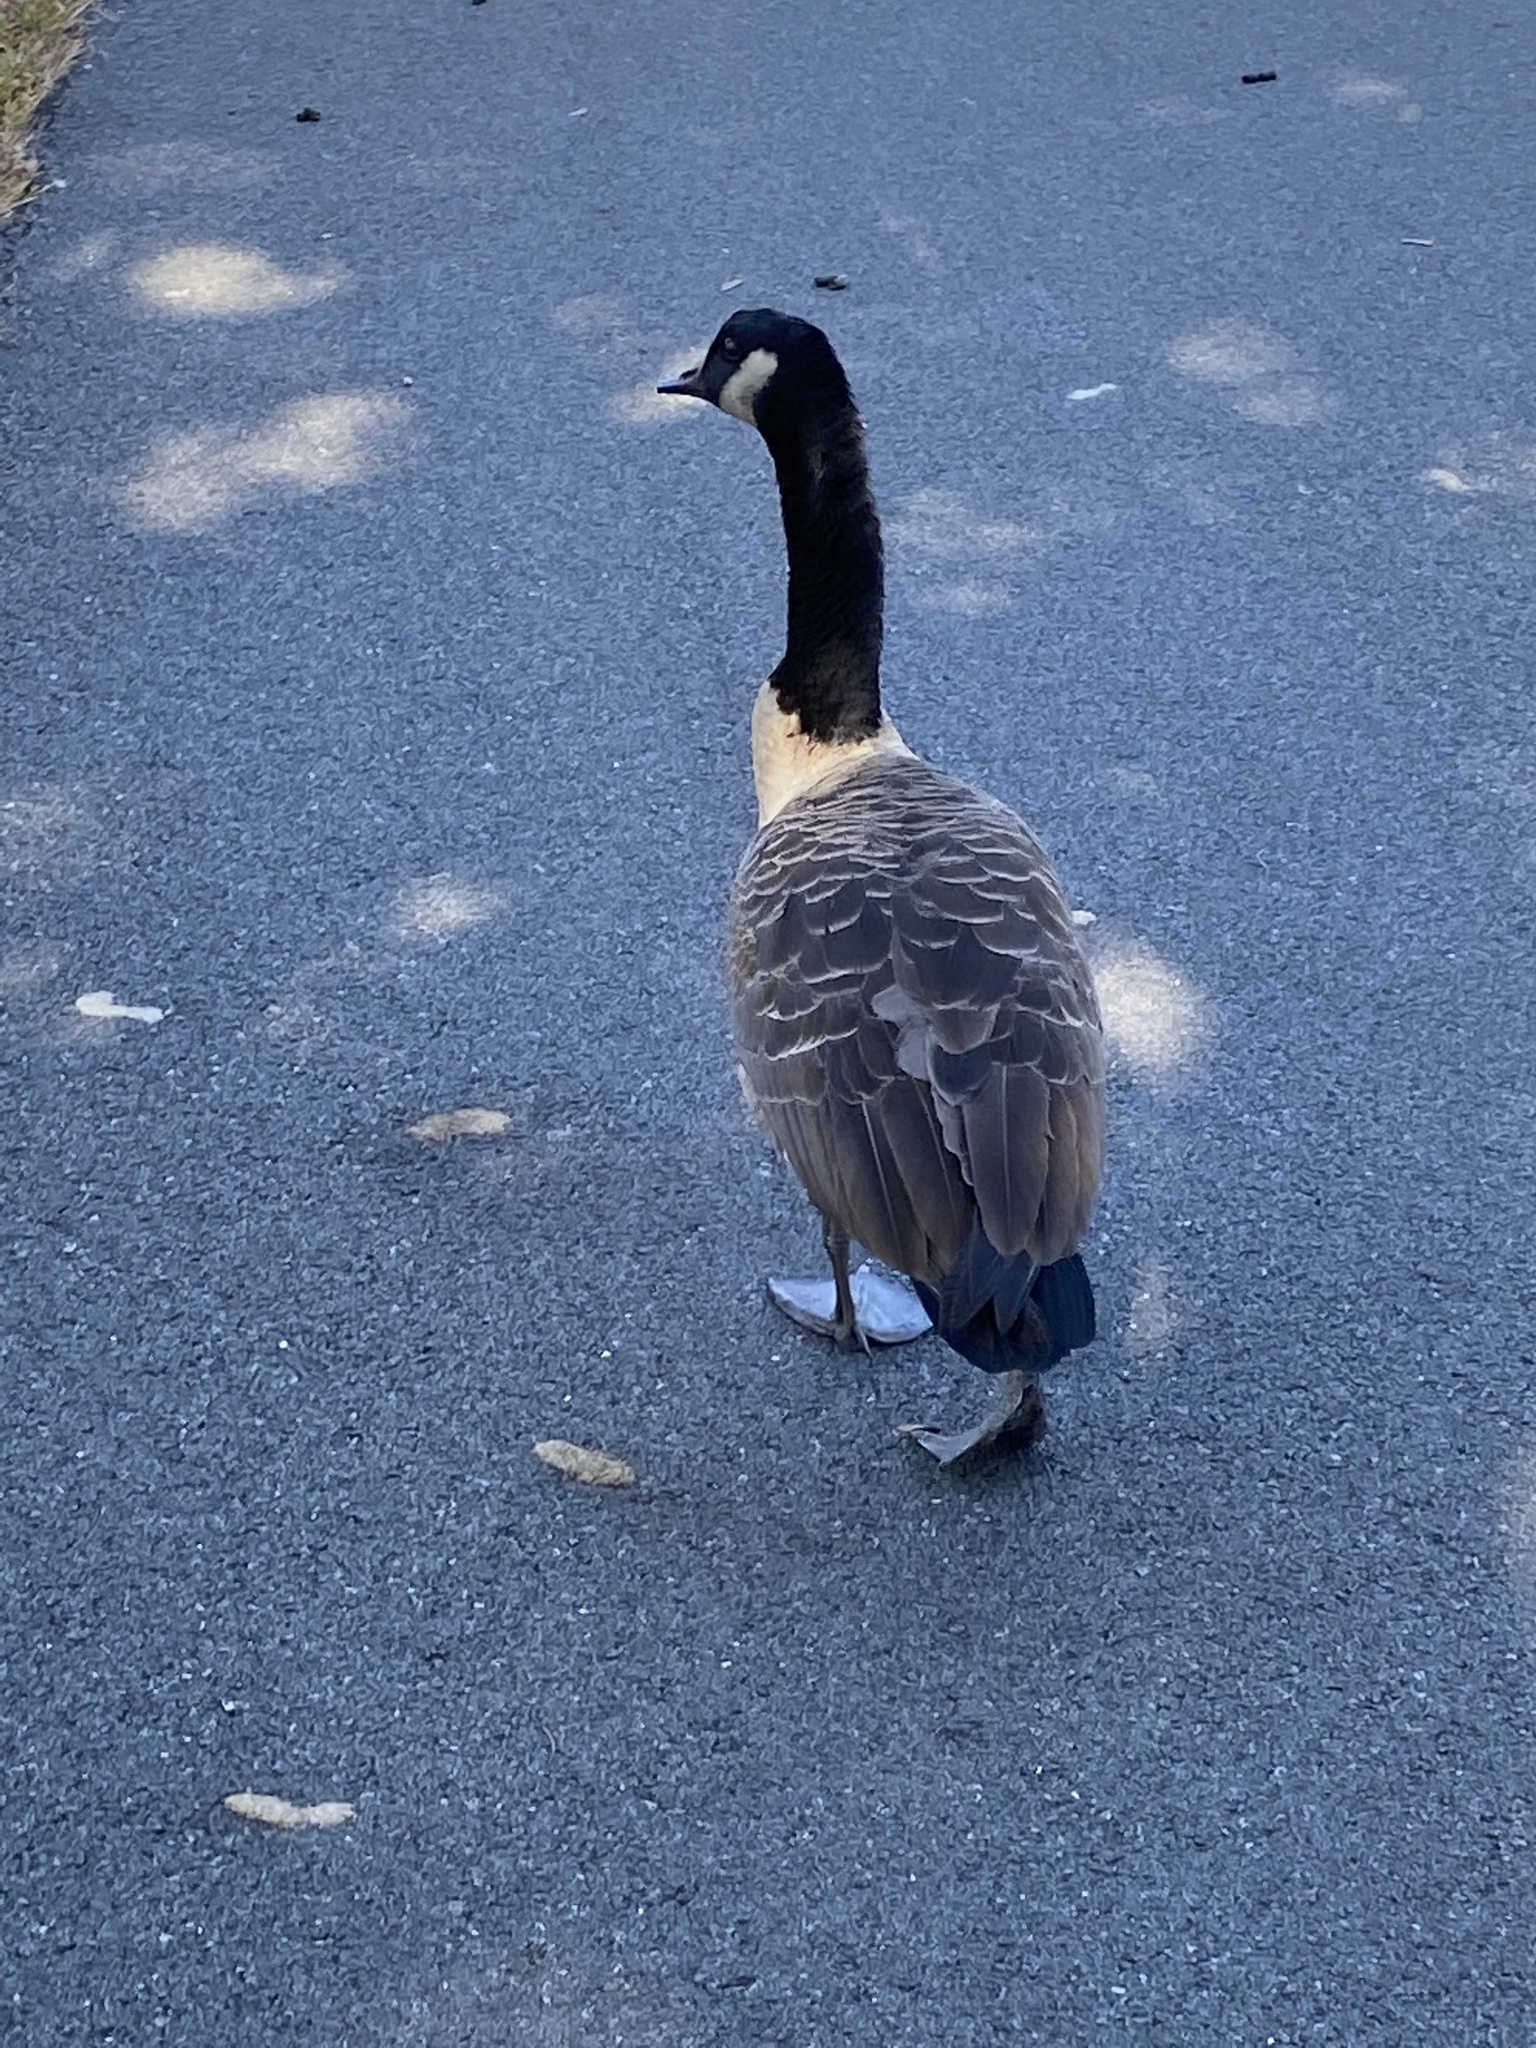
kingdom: Animalia
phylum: Chordata
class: Aves
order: Anseriformes
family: Anatidae
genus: Branta
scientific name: Branta canadensis
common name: Canada goose
